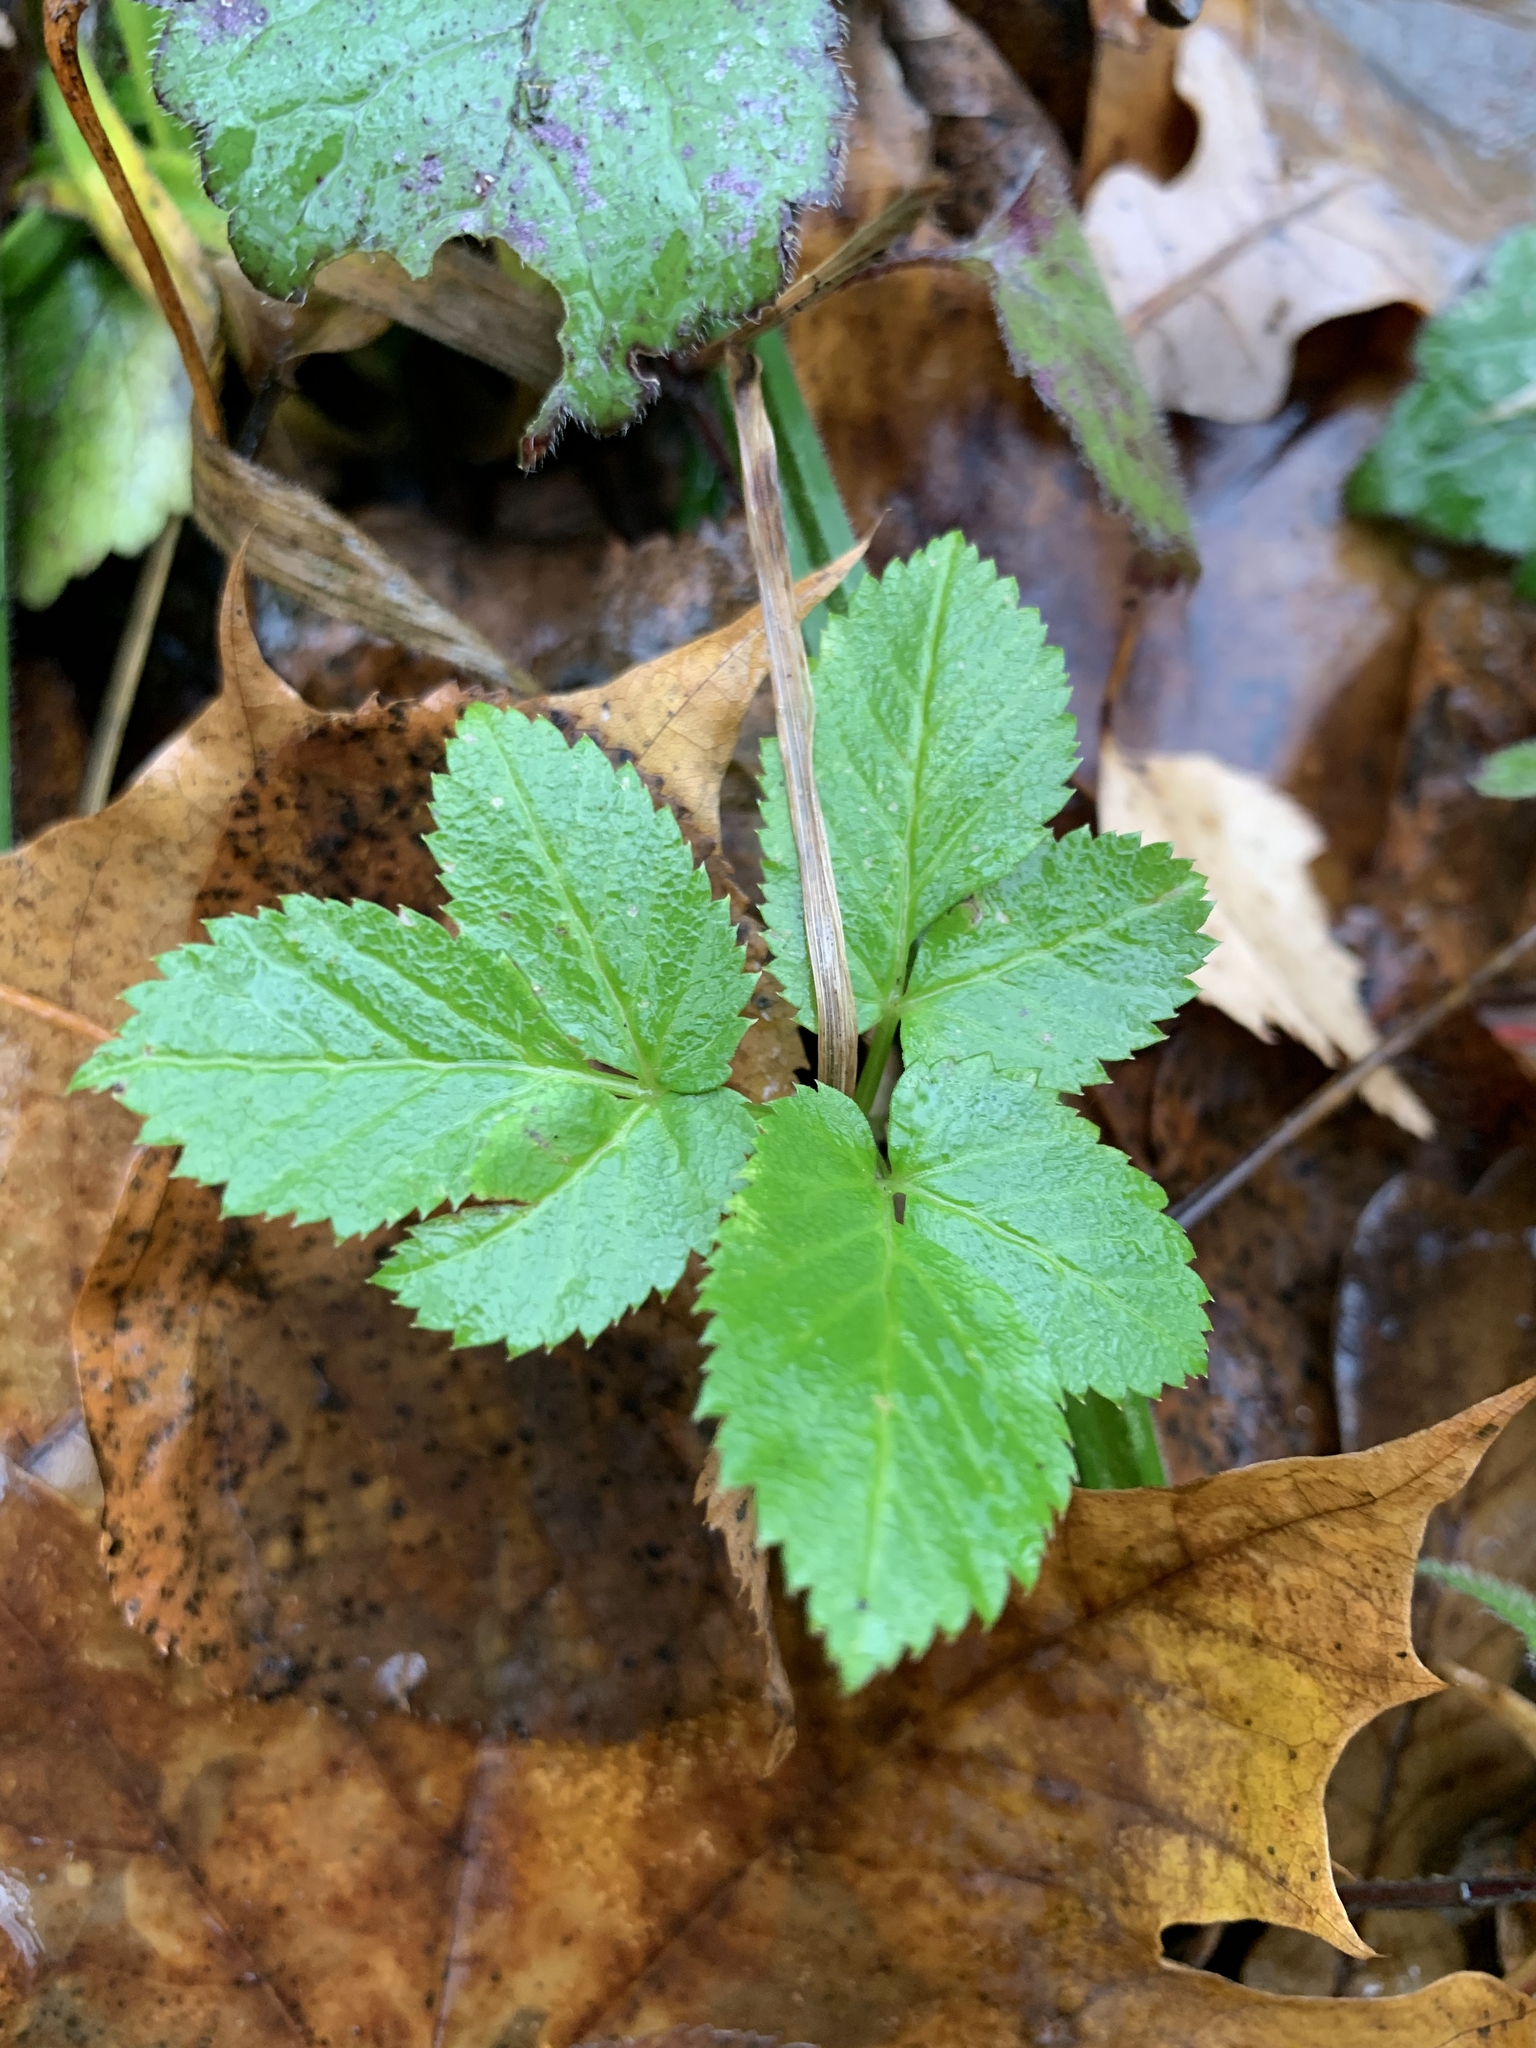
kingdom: Plantae
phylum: Tracheophyta
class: Magnoliopsida
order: Apiales
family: Apiaceae
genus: Aegopodium
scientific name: Aegopodium podagraria
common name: Ground-elder
